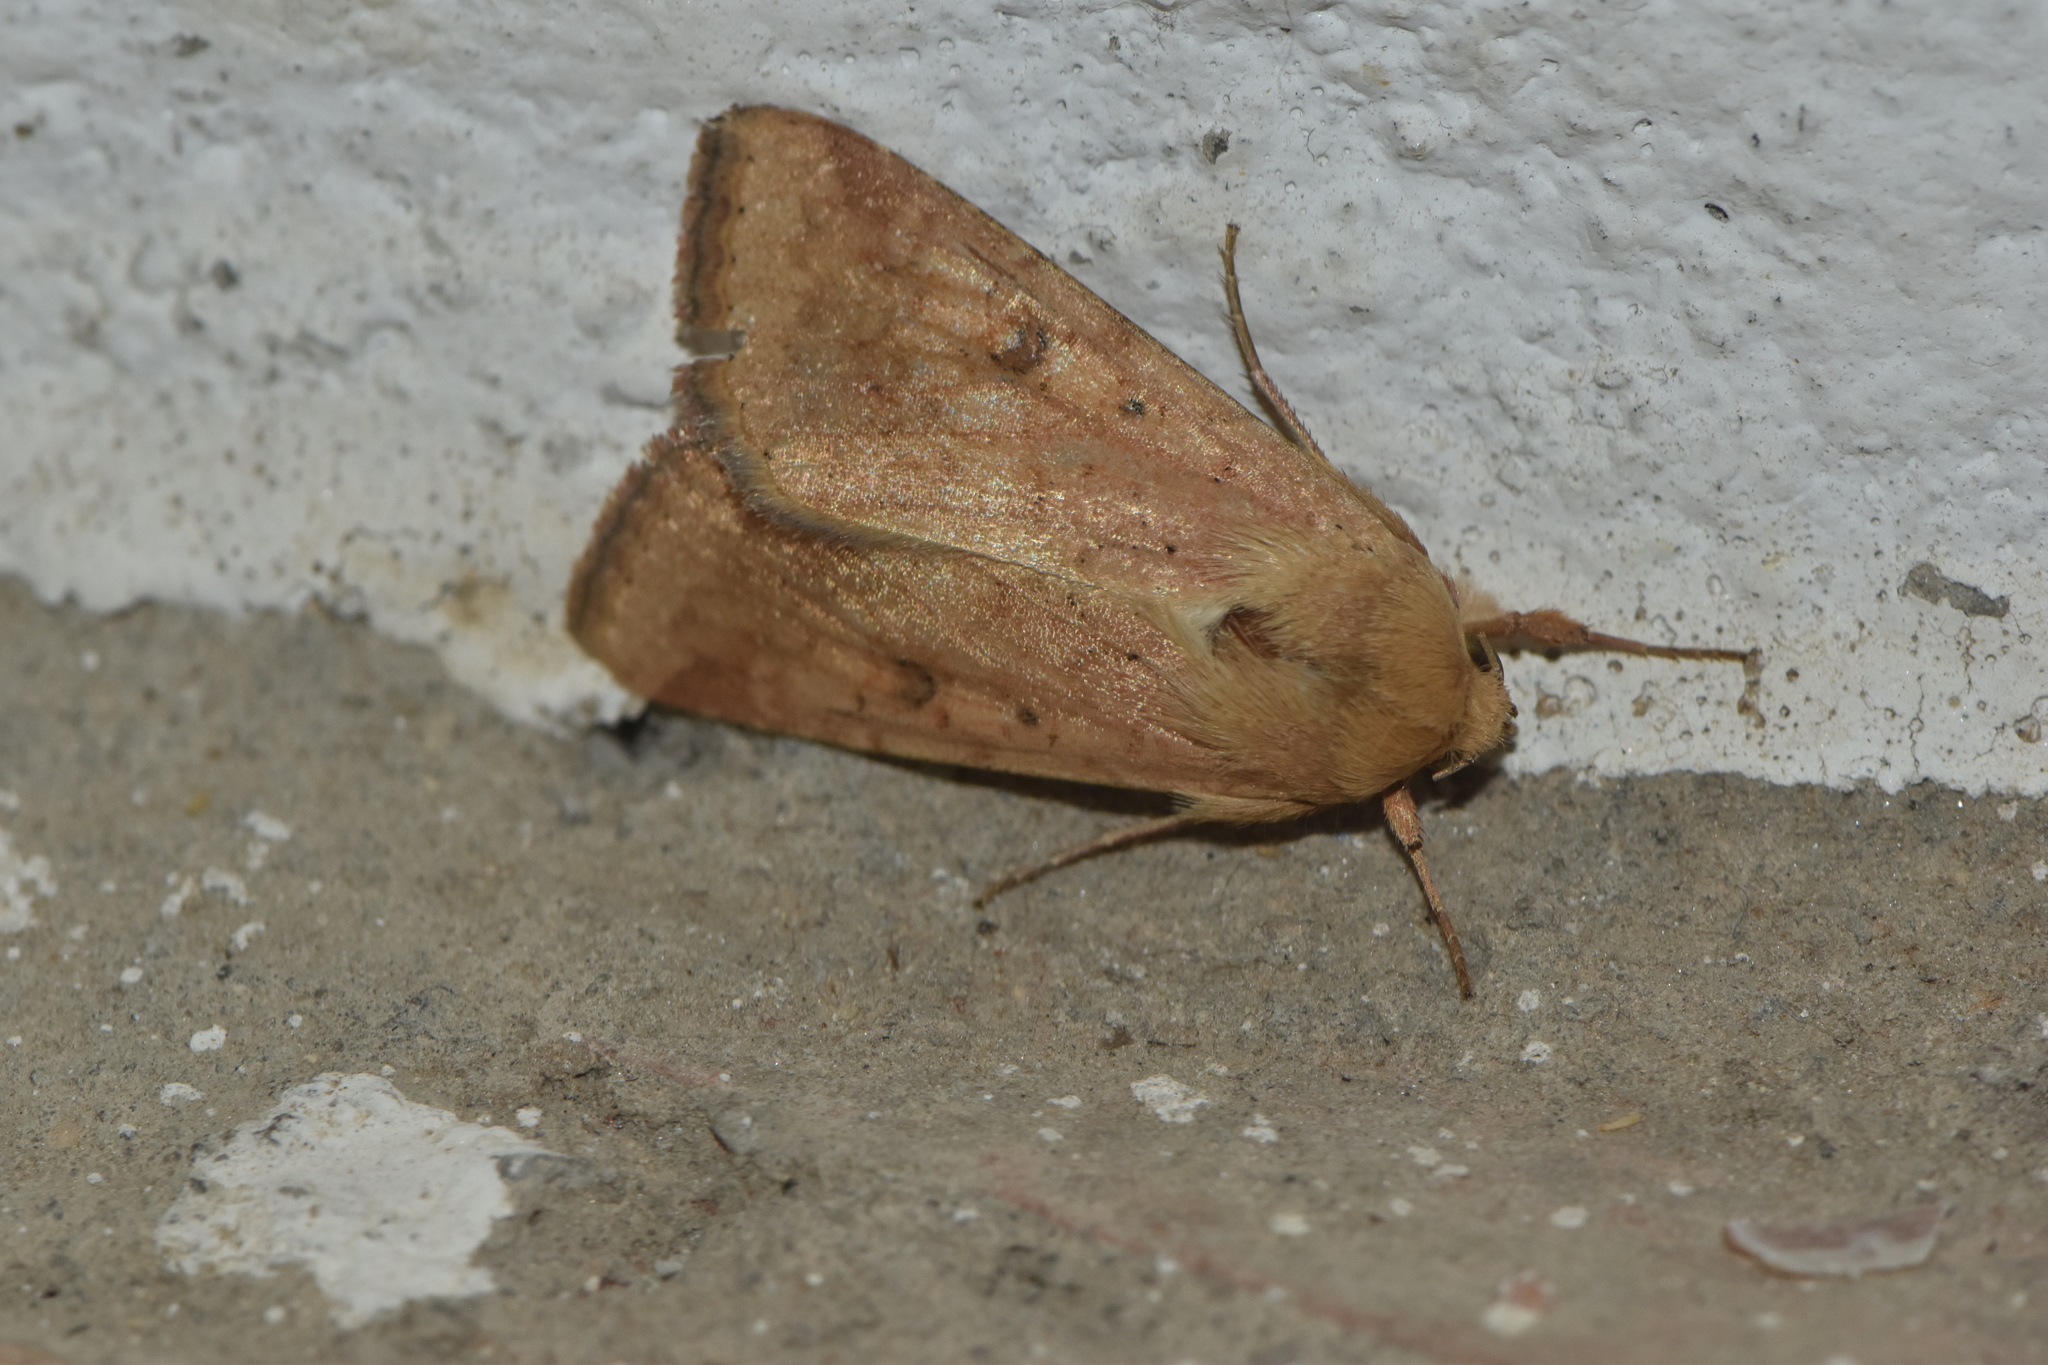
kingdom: Animalia
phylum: Arthropoda
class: Insecta
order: Lepidoptera
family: Noctuidae
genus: Helicoverpa
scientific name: Helicoverpa armigera
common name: Cotton bollworm
